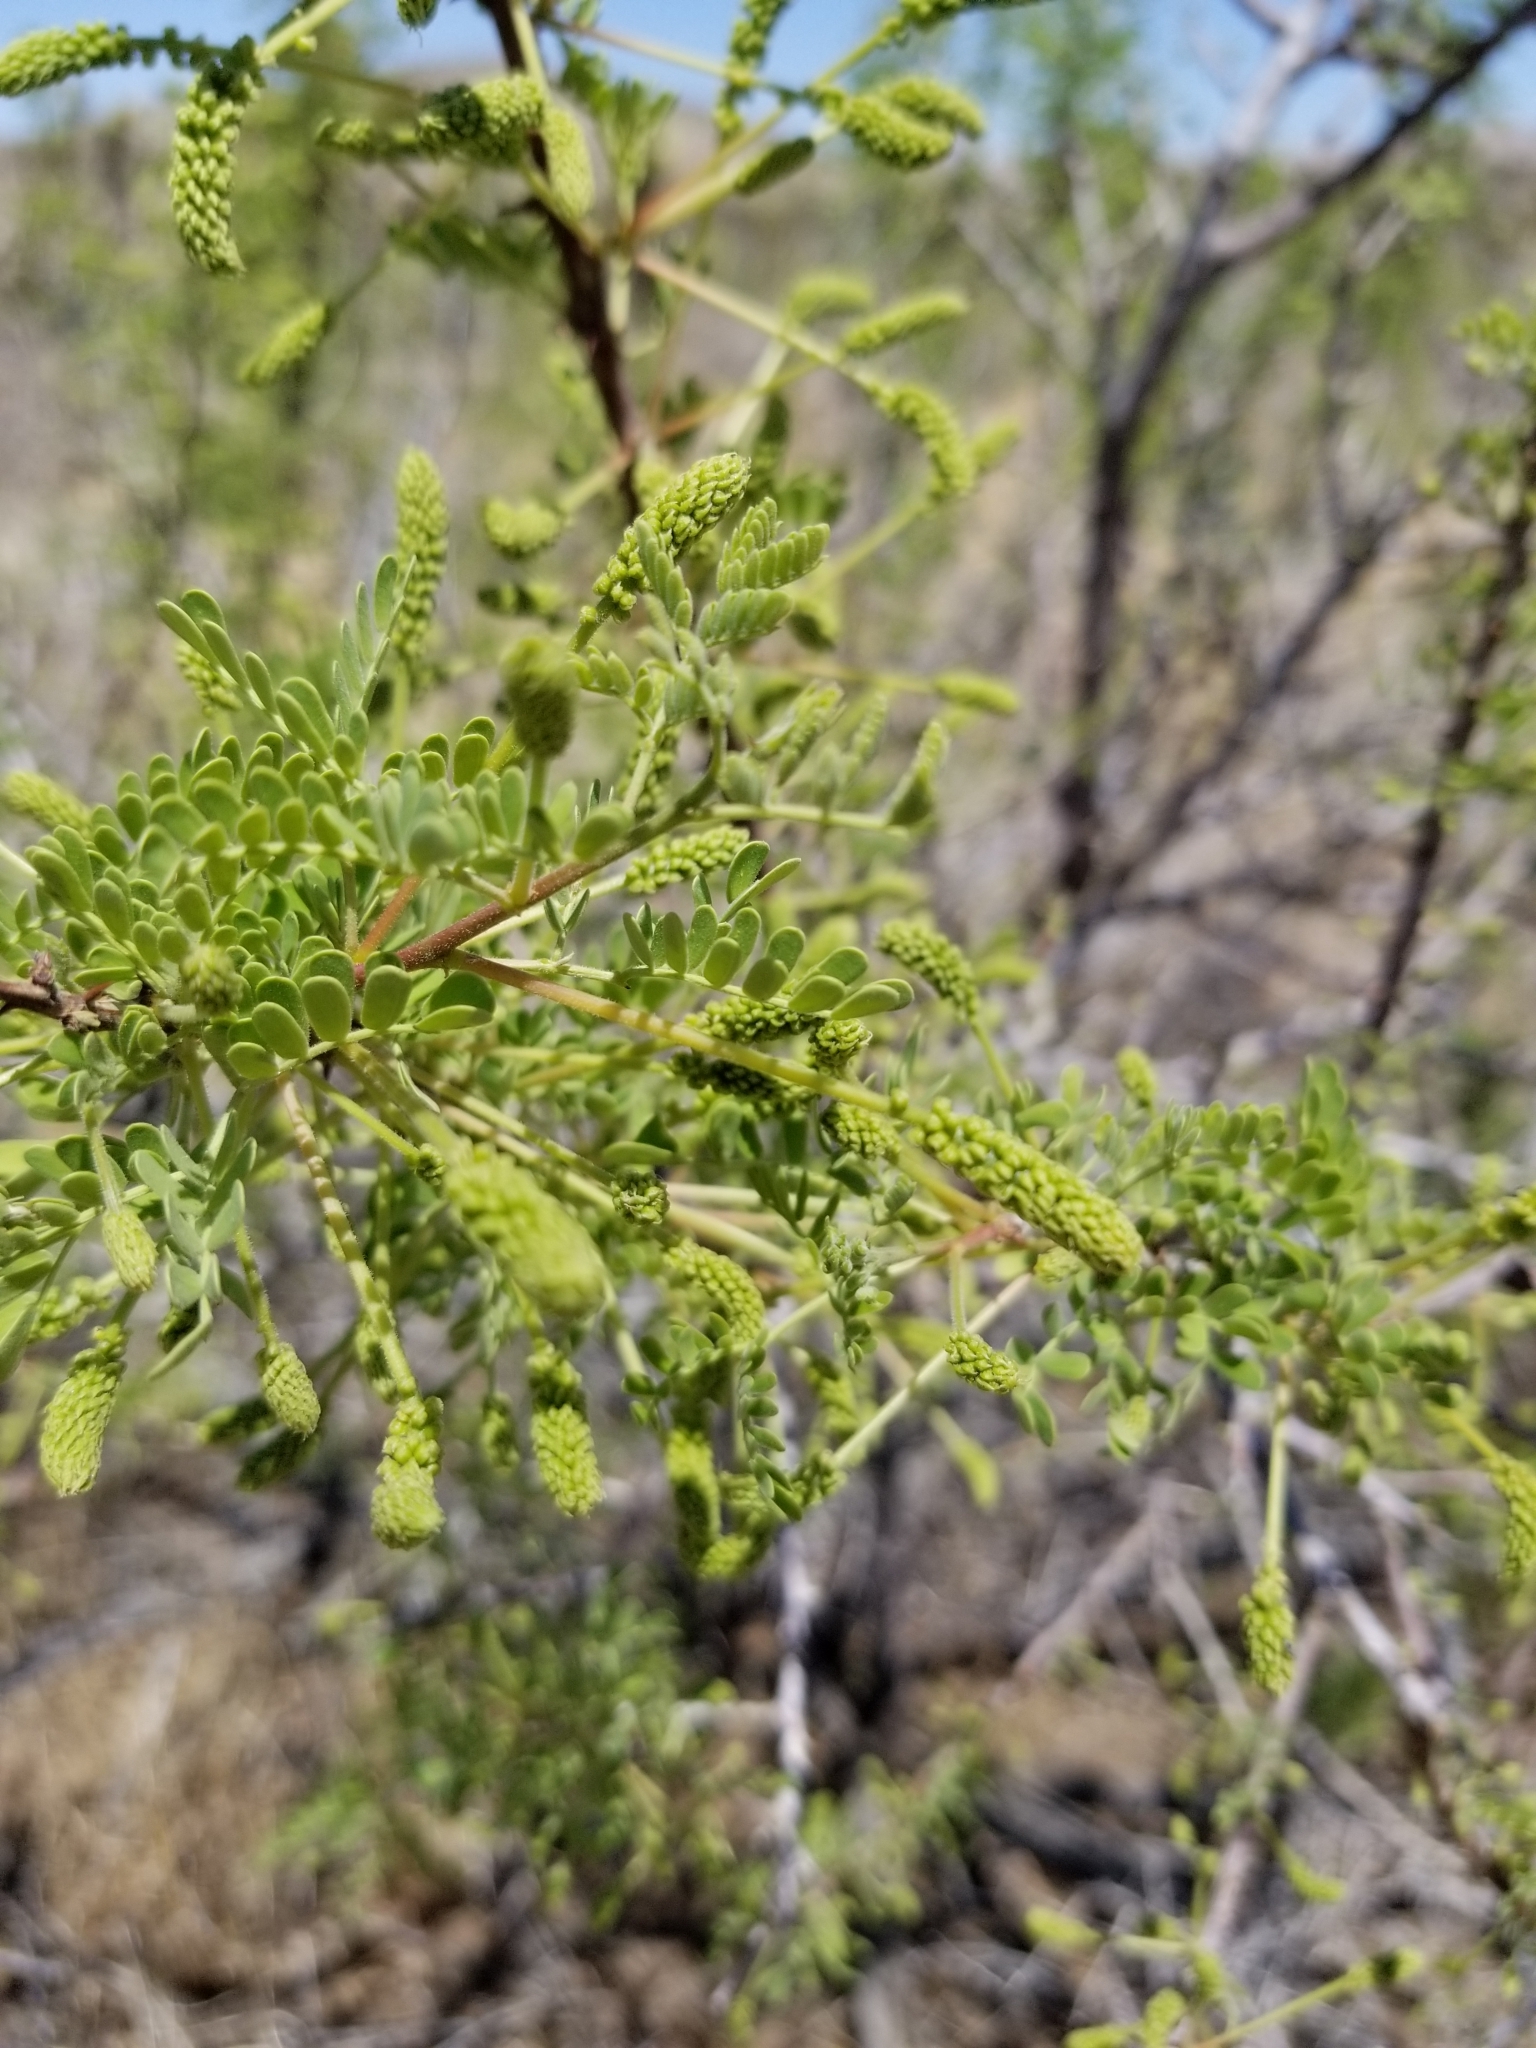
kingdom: Plantae
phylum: Tracheophyta
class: Magnoliopsida
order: Fabales
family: Fabaceae
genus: Senegalia
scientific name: Senegalia greggii
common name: Texas-mimosa
